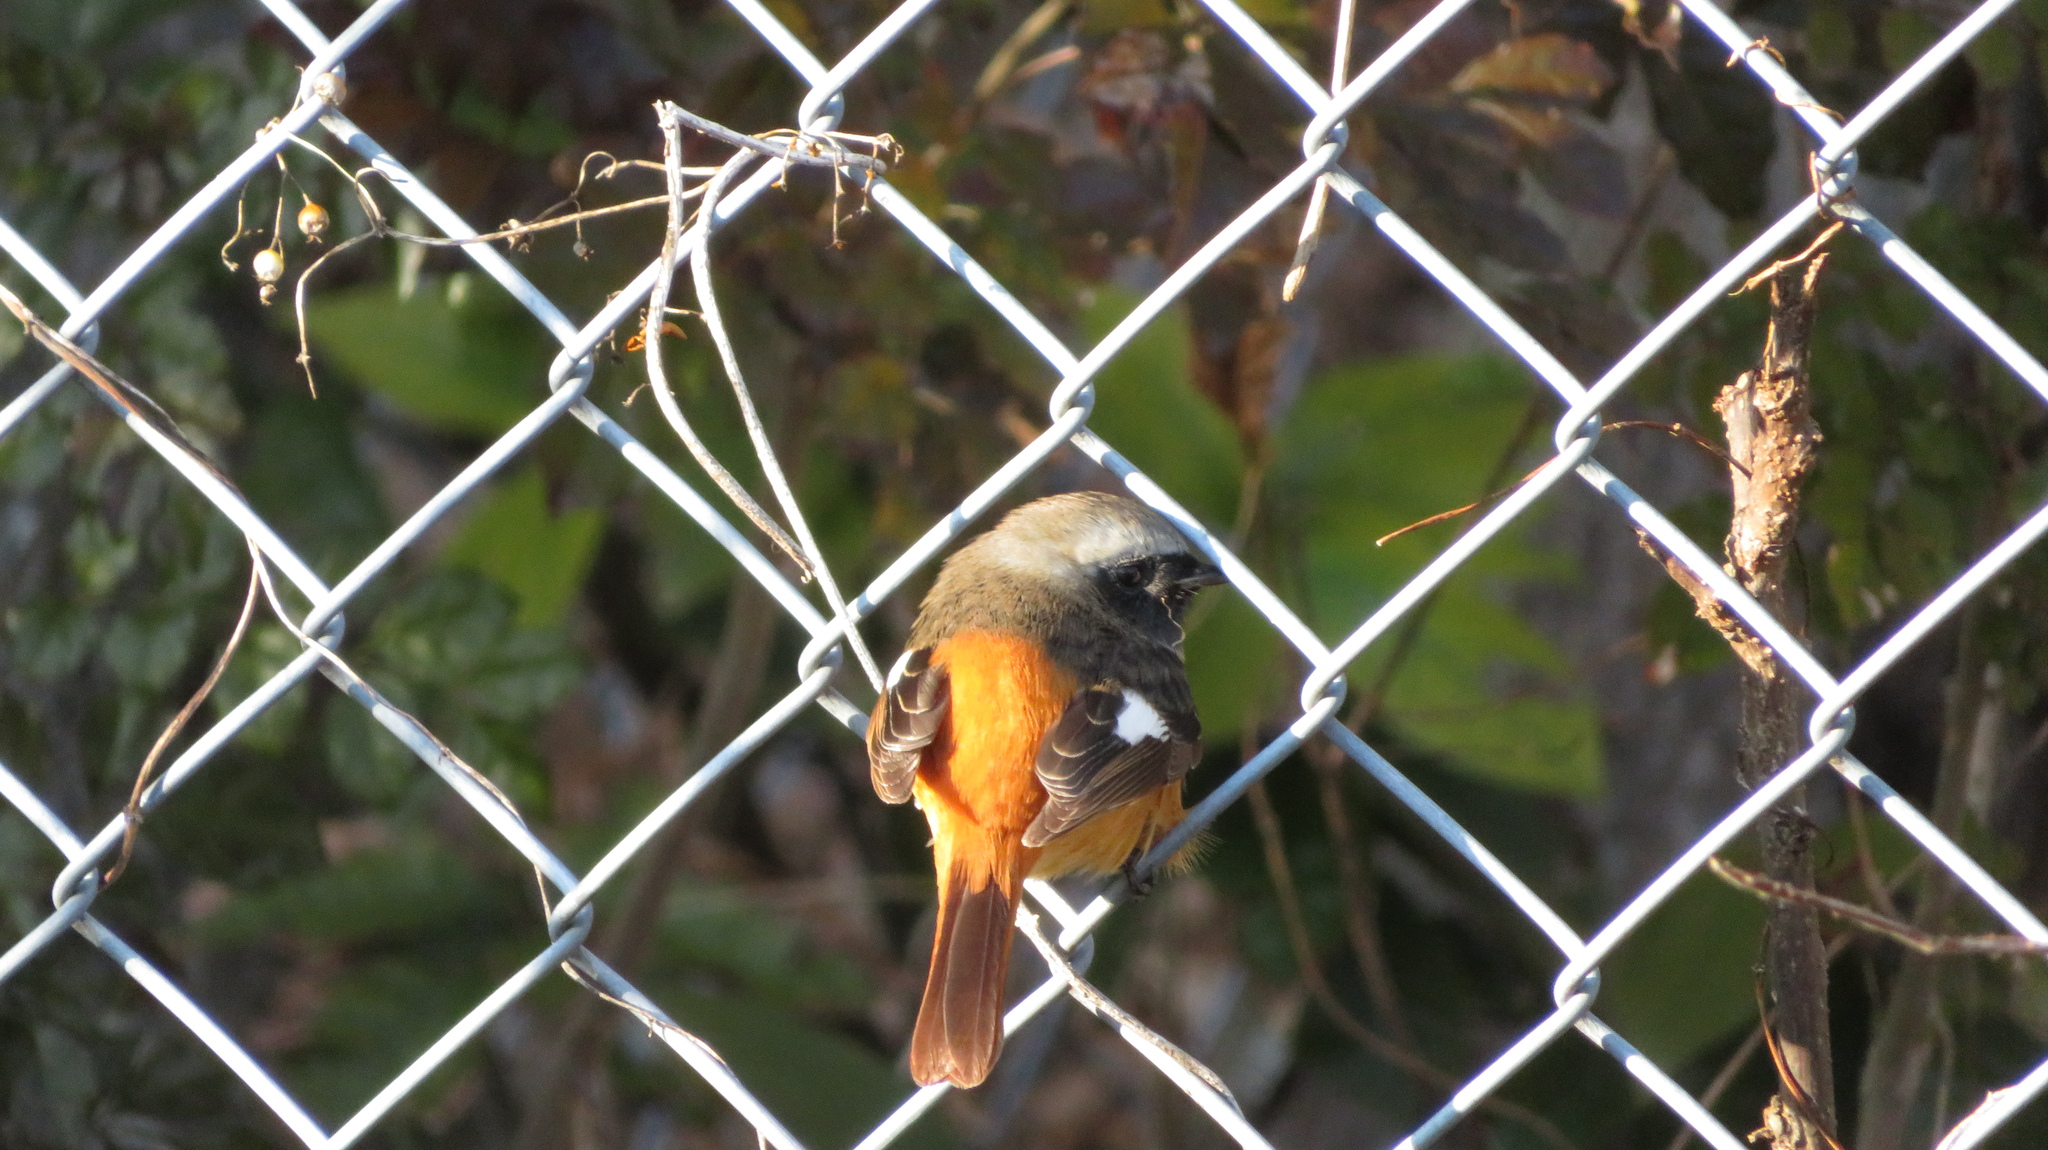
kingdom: Animalia
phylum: Chordata
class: Aves
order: Passeriformes
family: Muscicapidae
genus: Phoenicurus
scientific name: Phoenicurus auroreus
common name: Daurian redstart
